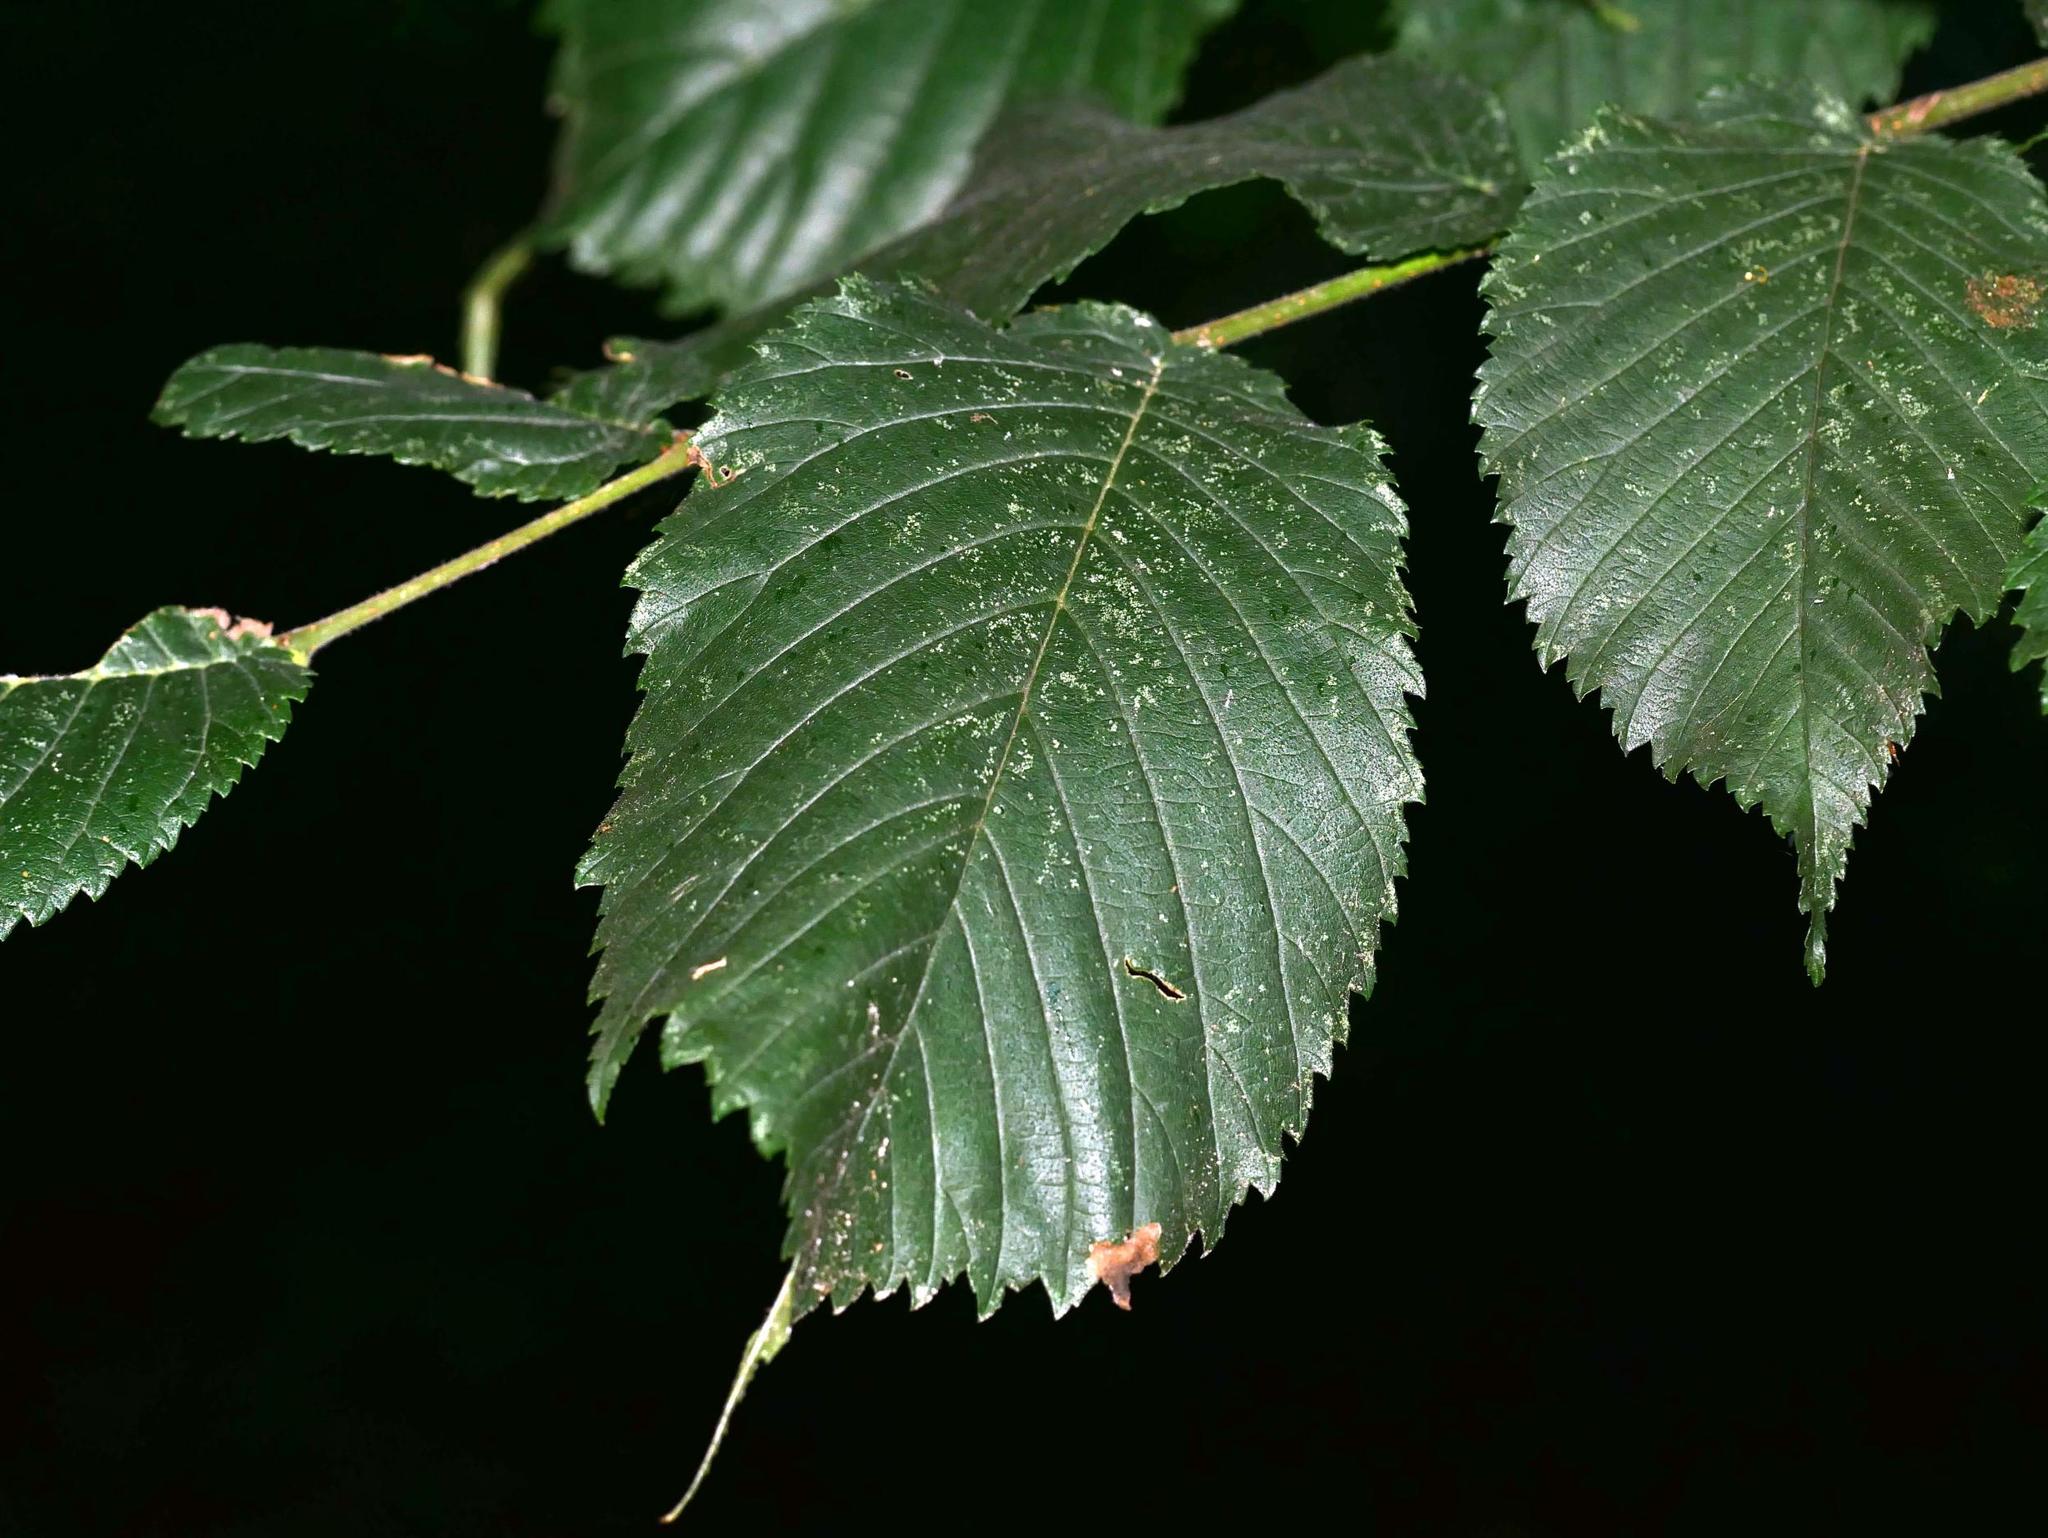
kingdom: Plantae
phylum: Tracheophyta
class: Magnoliopsida
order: Rosales
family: Ulmaceae
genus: Ulmus
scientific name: Ulmus laevis
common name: European white-elm
